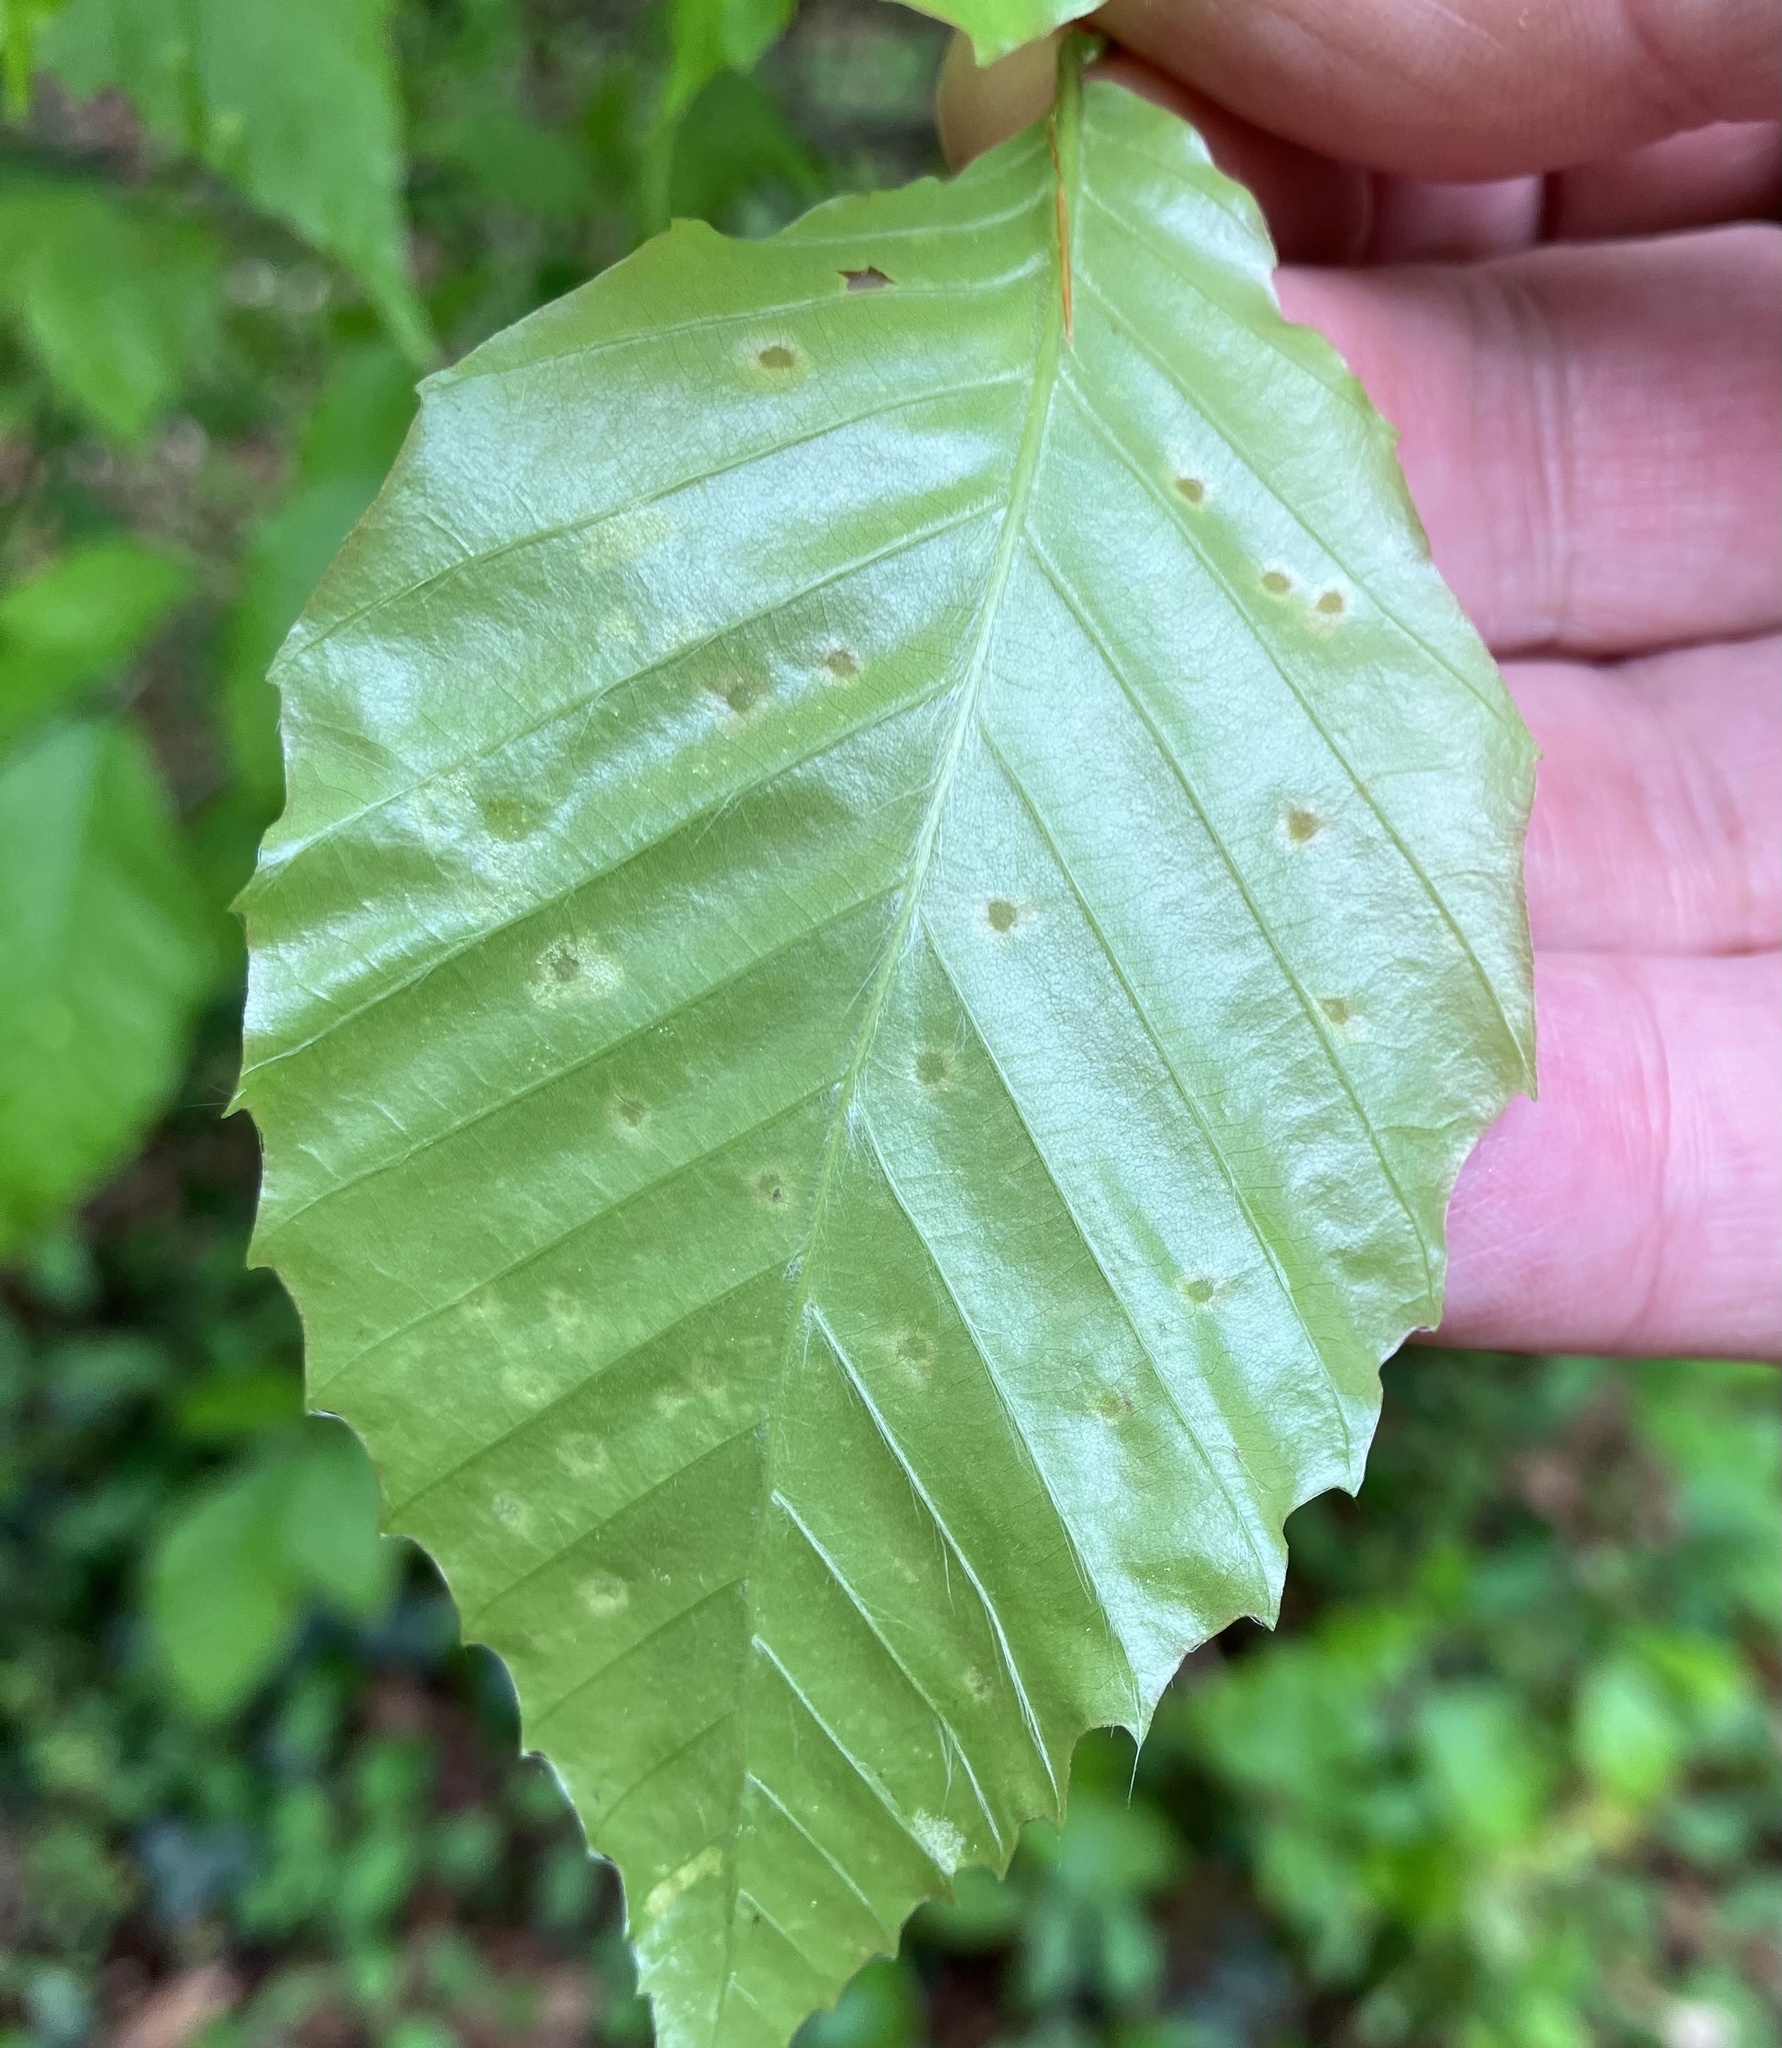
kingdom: Animalia
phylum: Arthropoda
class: Arachnida
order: Trombidiformes
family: Eriophyidae
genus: Acalitus
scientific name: Acalitus
